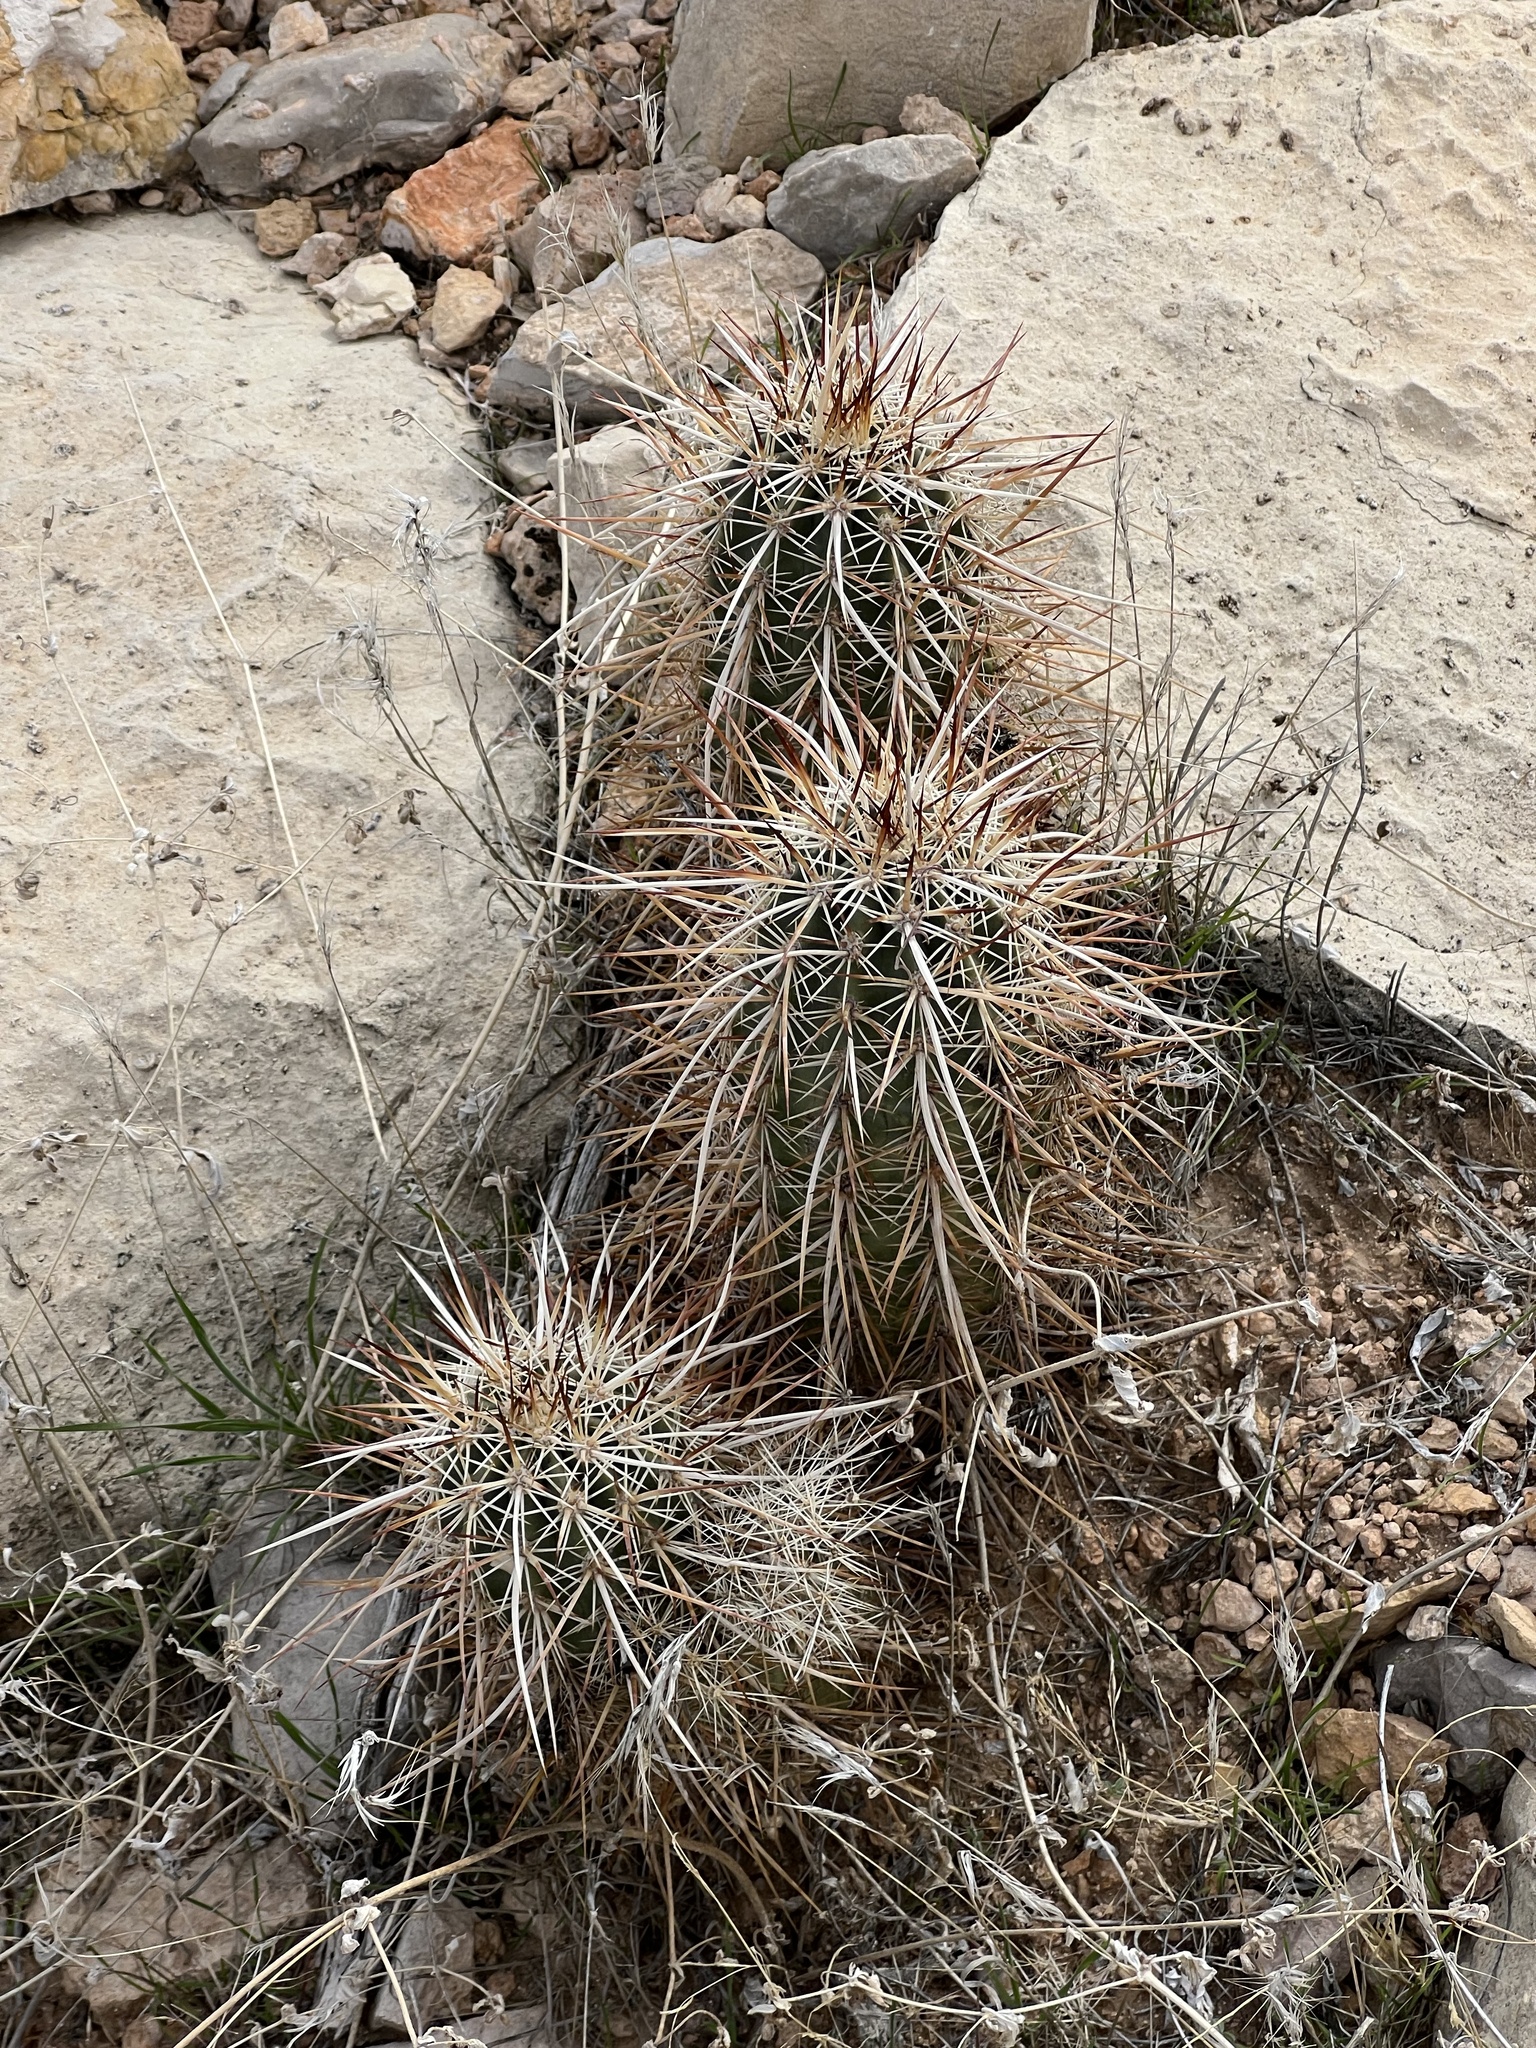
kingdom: Plantae
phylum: Tracheophyta
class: Magnoliopsida
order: Caryophyllales
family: Cactaceae
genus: Echinocereus
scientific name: Echinocereus engelmannii
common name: Engelmann's hedgehog cactus
